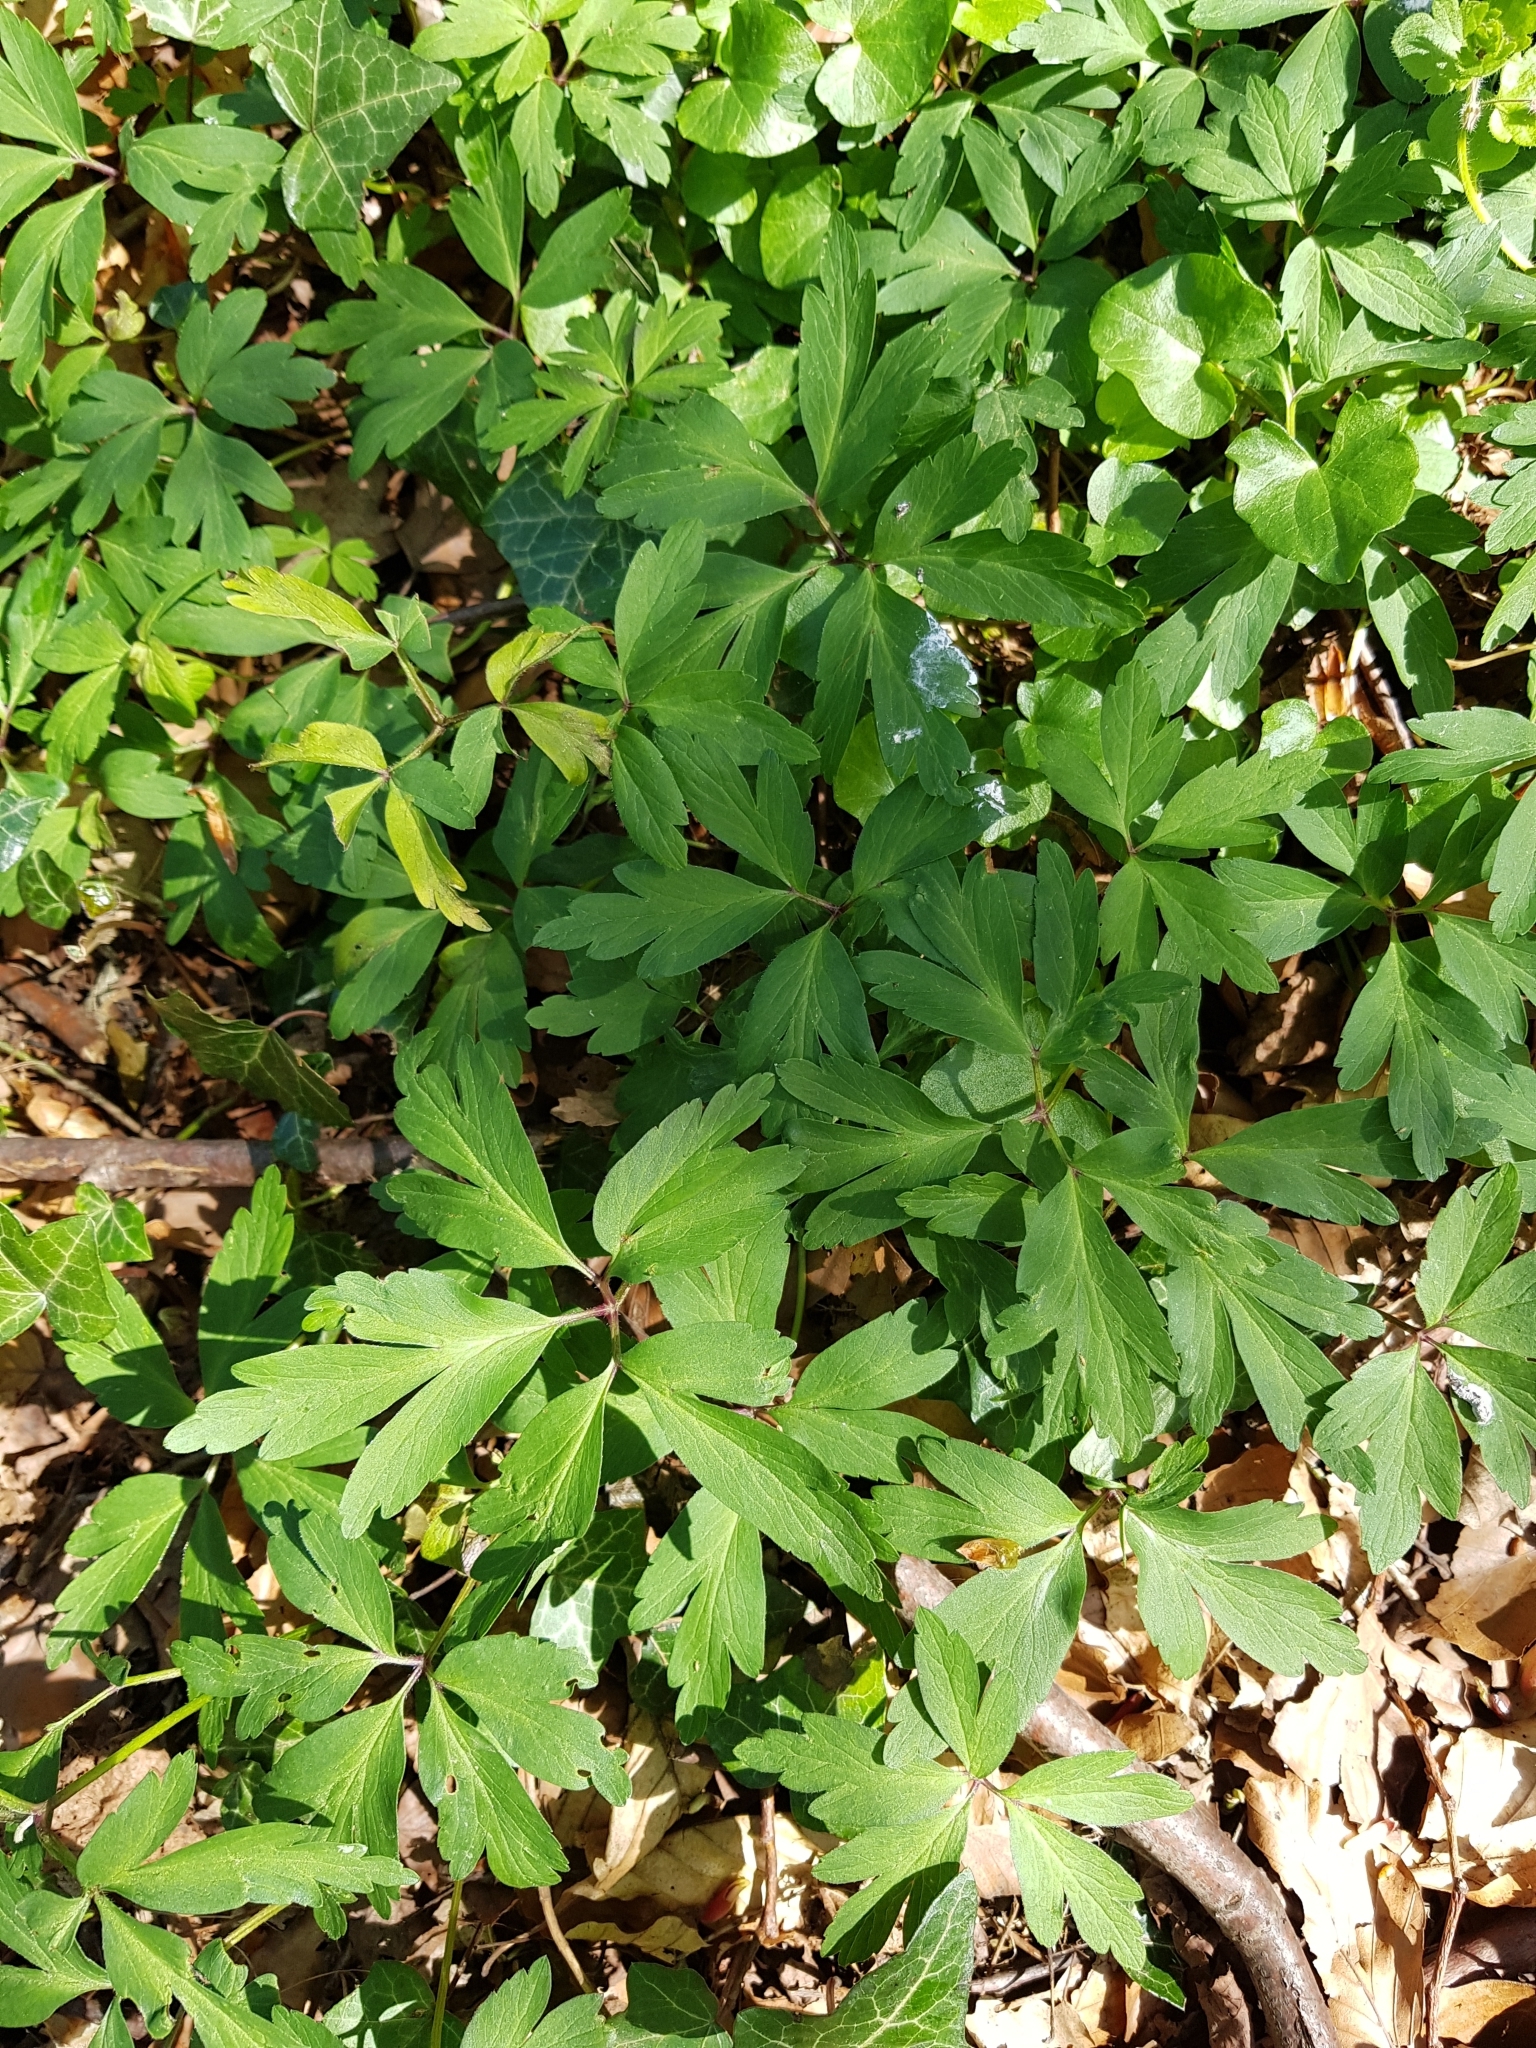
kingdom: Plantae
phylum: Tracheophyta
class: Magnoliopsida
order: Ranunculales
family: Ranunculaceae
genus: Anemone
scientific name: Anemone nemorosa
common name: Wood anemone
